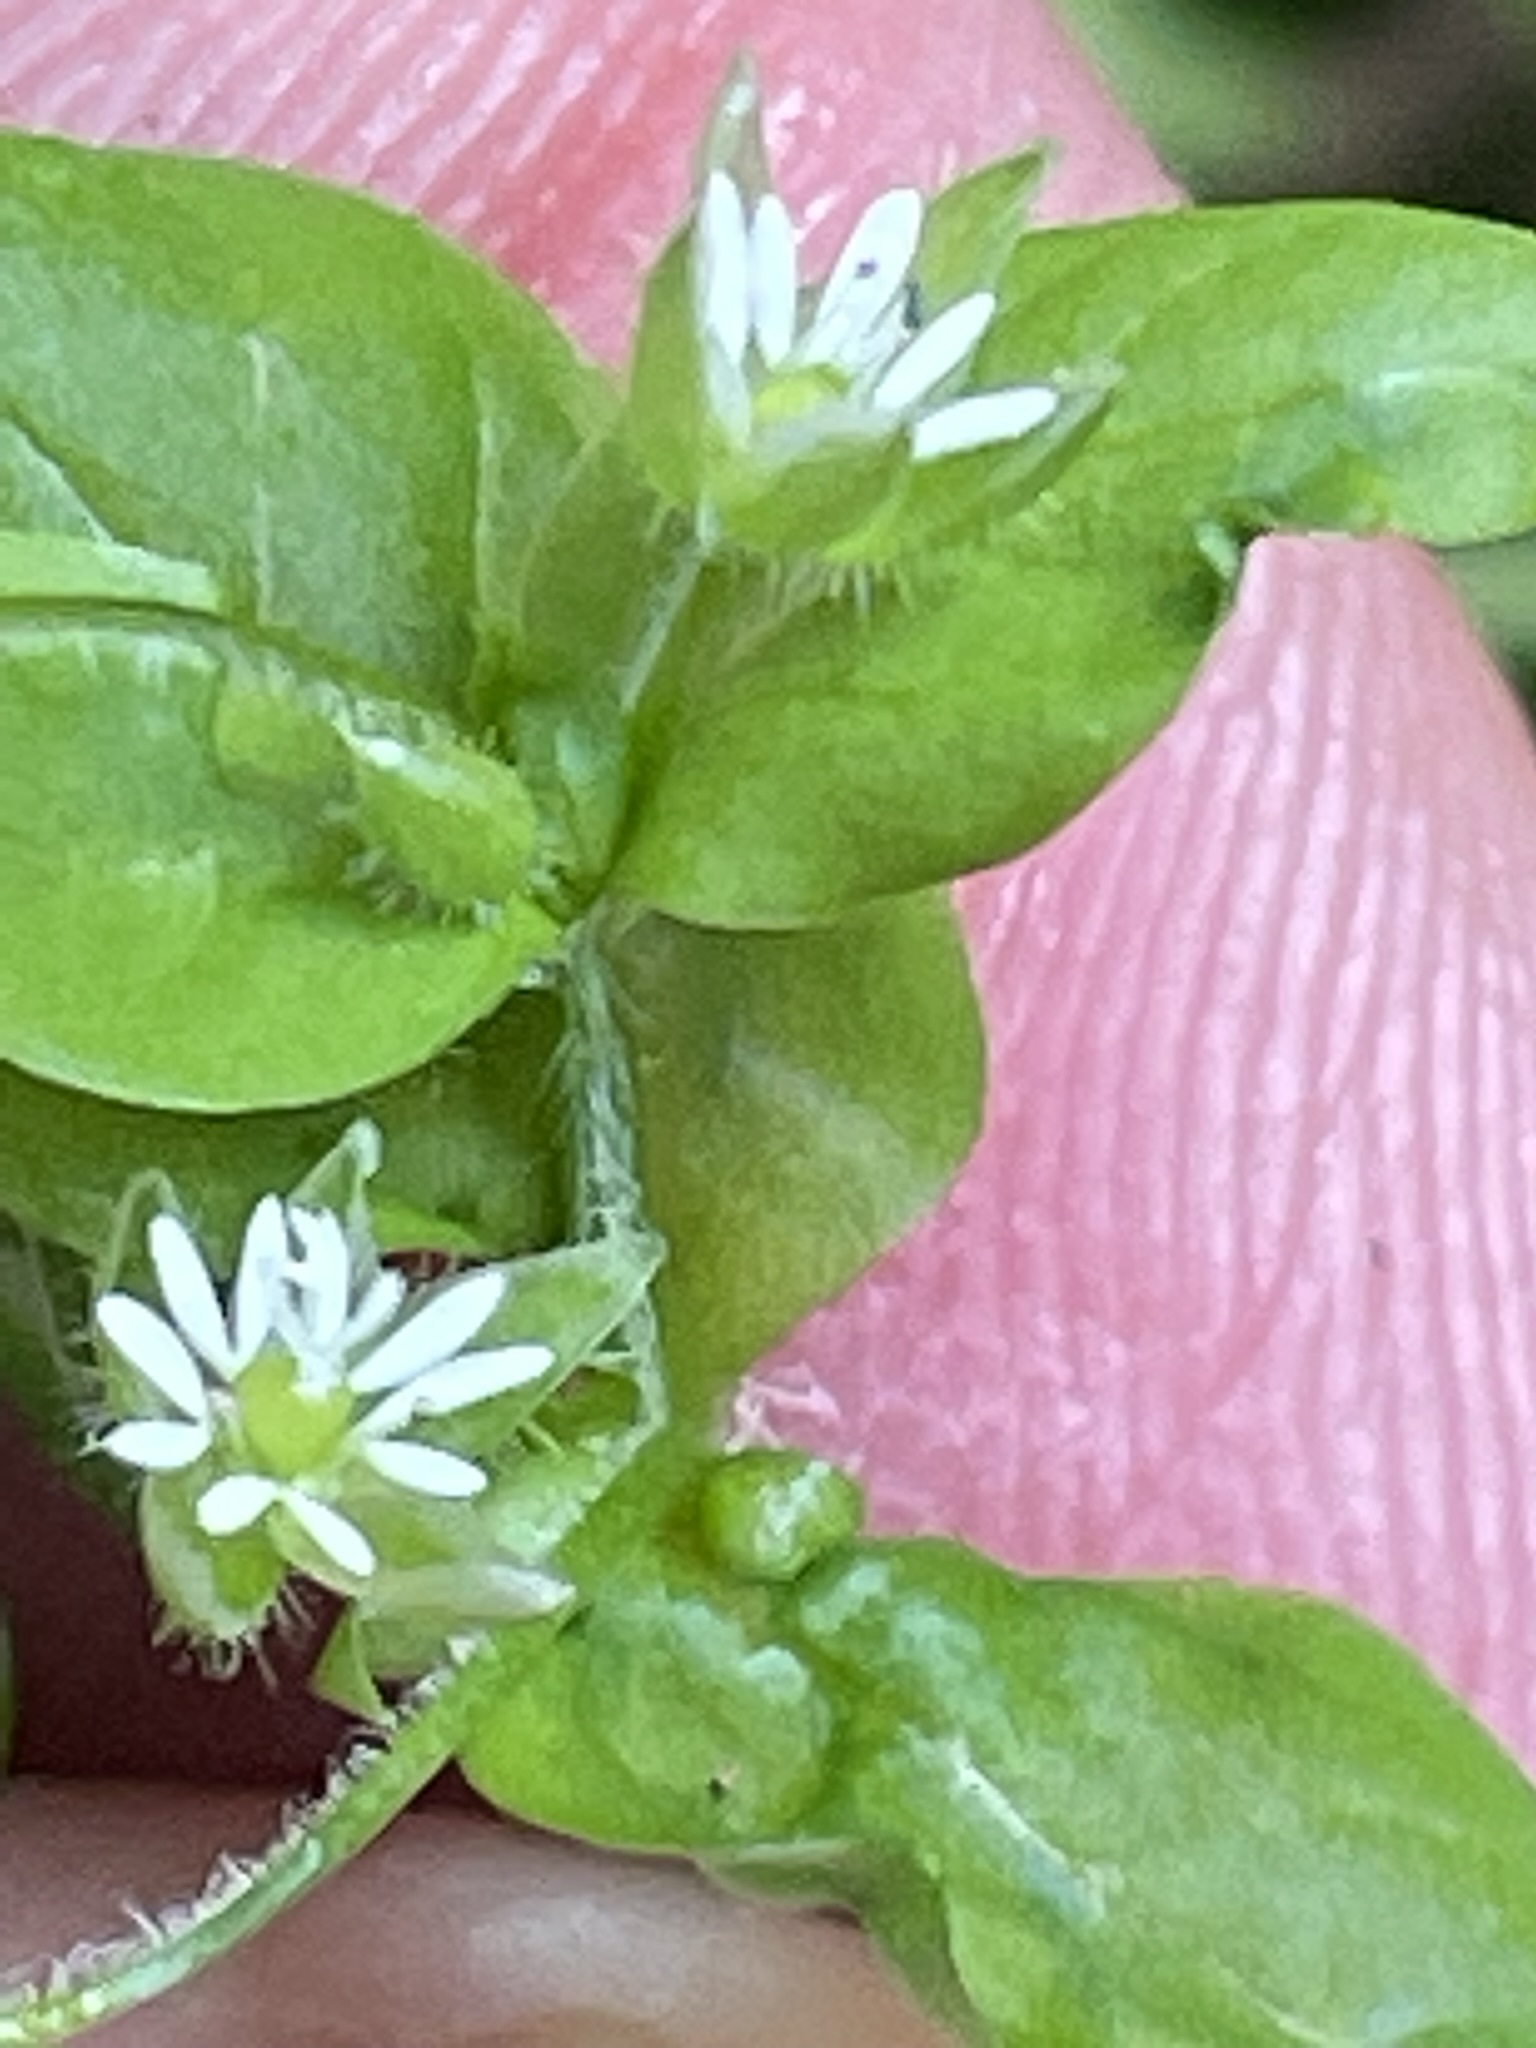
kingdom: Plantae
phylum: Tracheophyta
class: Magnoliopsida
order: Caryophyllales
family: Caryophyllaceae
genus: Stellaria
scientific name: Stellaria media
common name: Common chickweed
